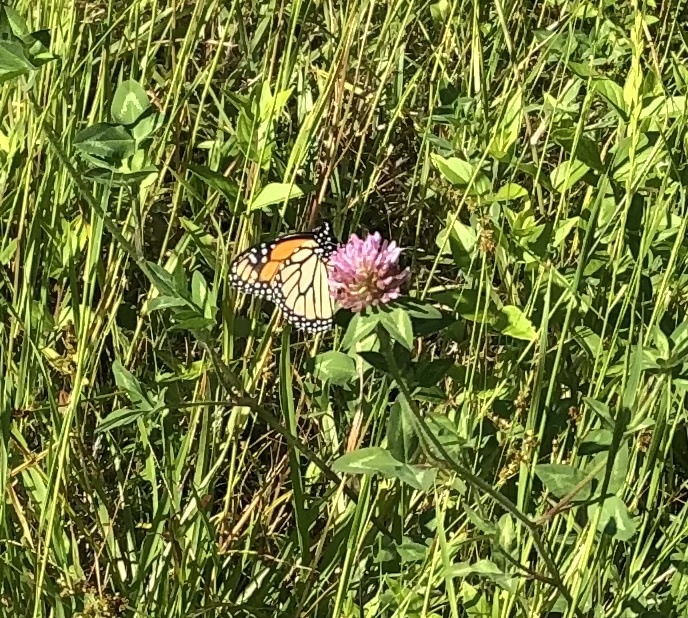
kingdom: Animalia
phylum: Arthropoda
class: Insecta
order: Lepidoptera
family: Nymphalidae
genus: Danaus
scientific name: Danaus plexippus
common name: Monarch
